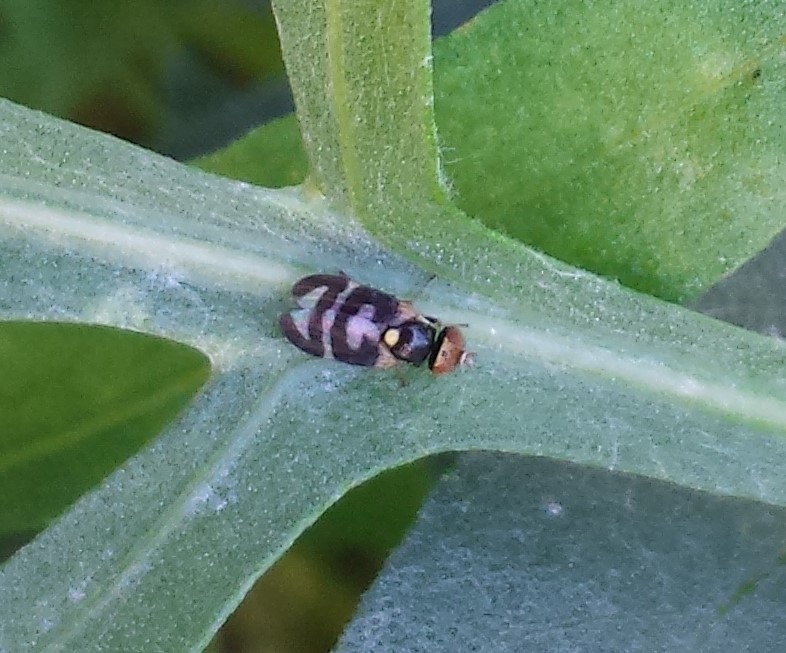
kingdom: Animalia
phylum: Arthropoda
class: Insecta
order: Diptera
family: Tephritidae
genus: Urophora
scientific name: Urophora quadrifasciata
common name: Knapweed seedhead fly
